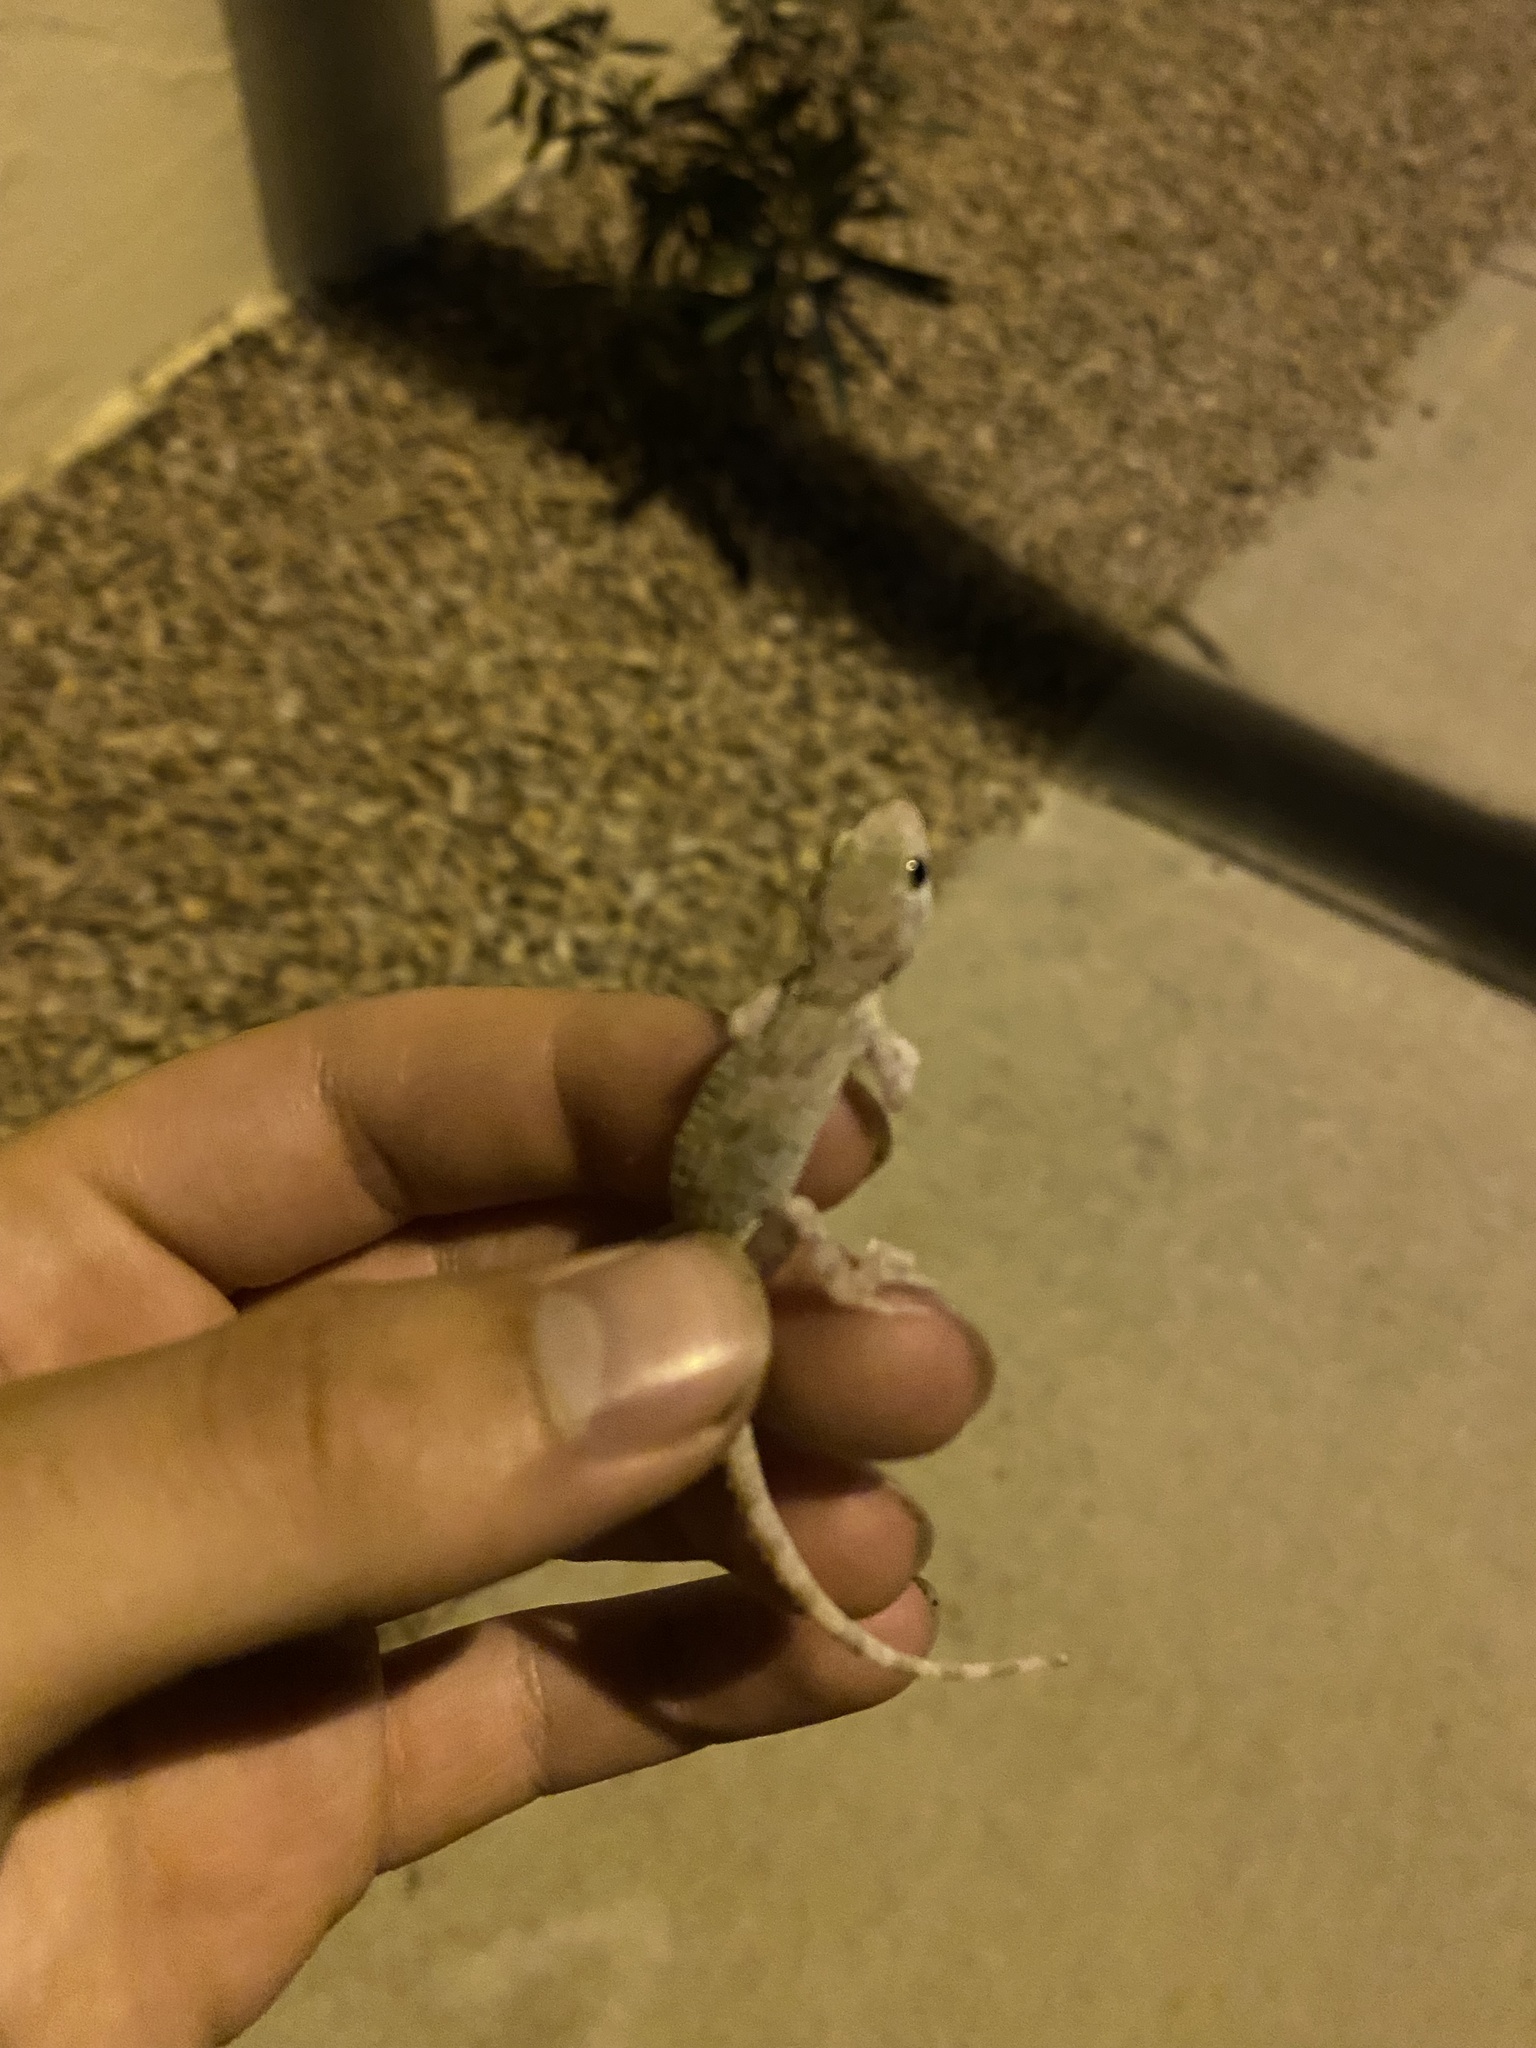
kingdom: Animalia
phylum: Chordata
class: Squamata
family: Gekkonidae
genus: Cyrtopodion
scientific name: Cyrtopodion scabrum
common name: Rough-tailed gecko
